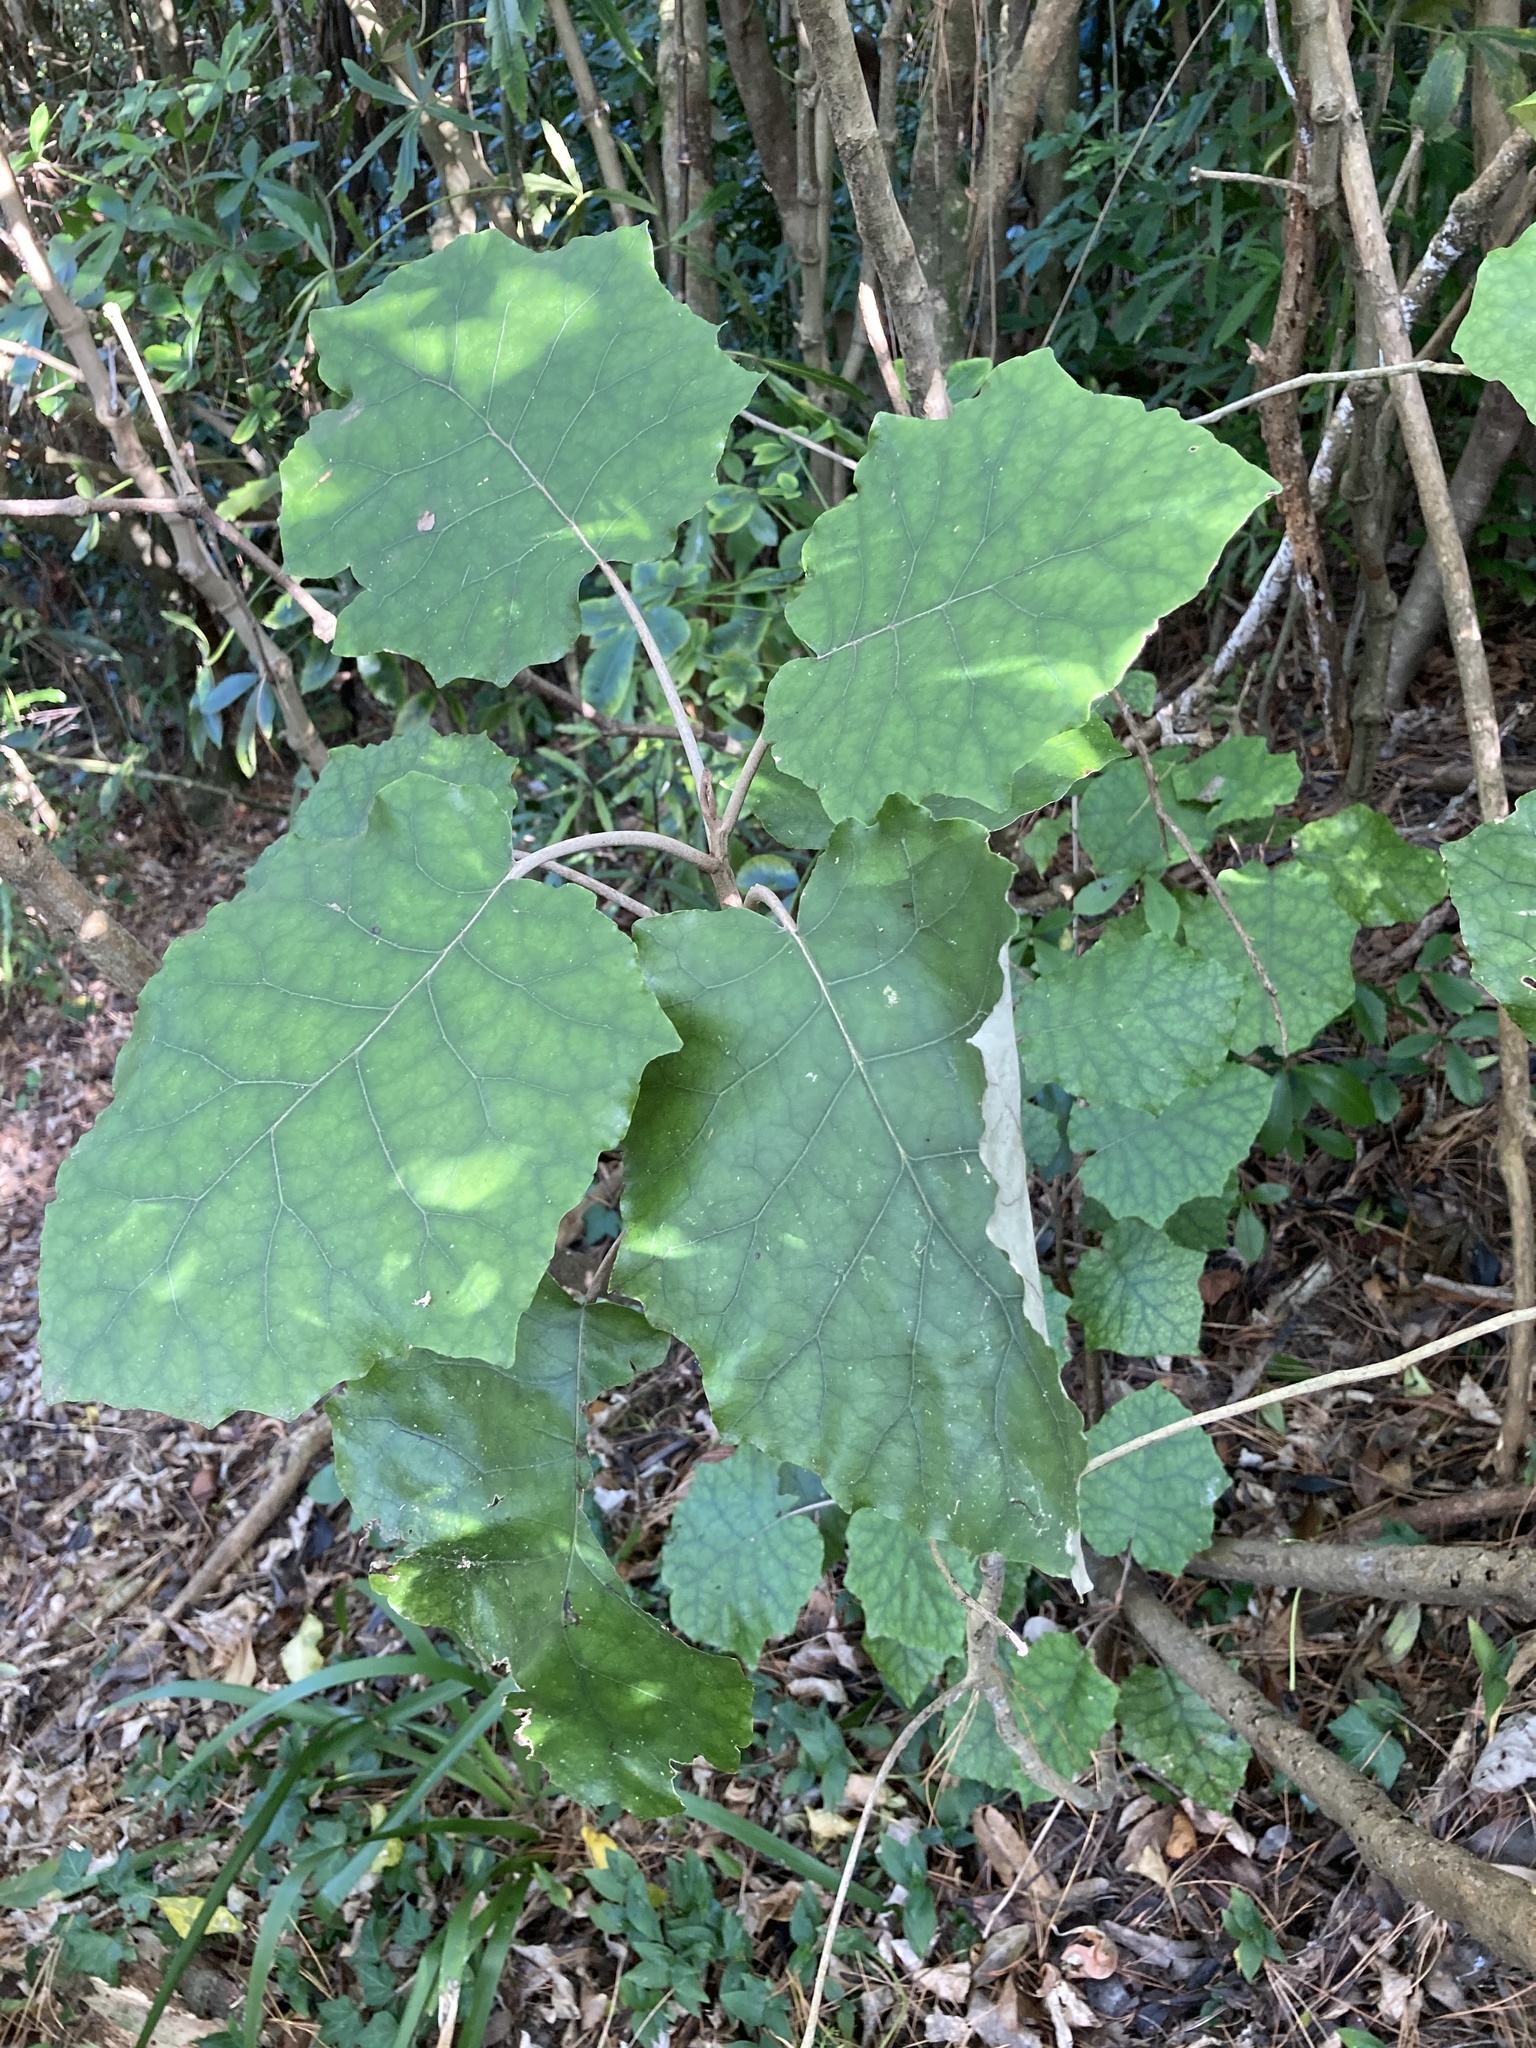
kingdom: Plantae
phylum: Tracheophyta
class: Magnoliopsida
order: Asterales
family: Asteraceae
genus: Brachyglottis
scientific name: Brachyglottis repanda
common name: Hedge ragwort
